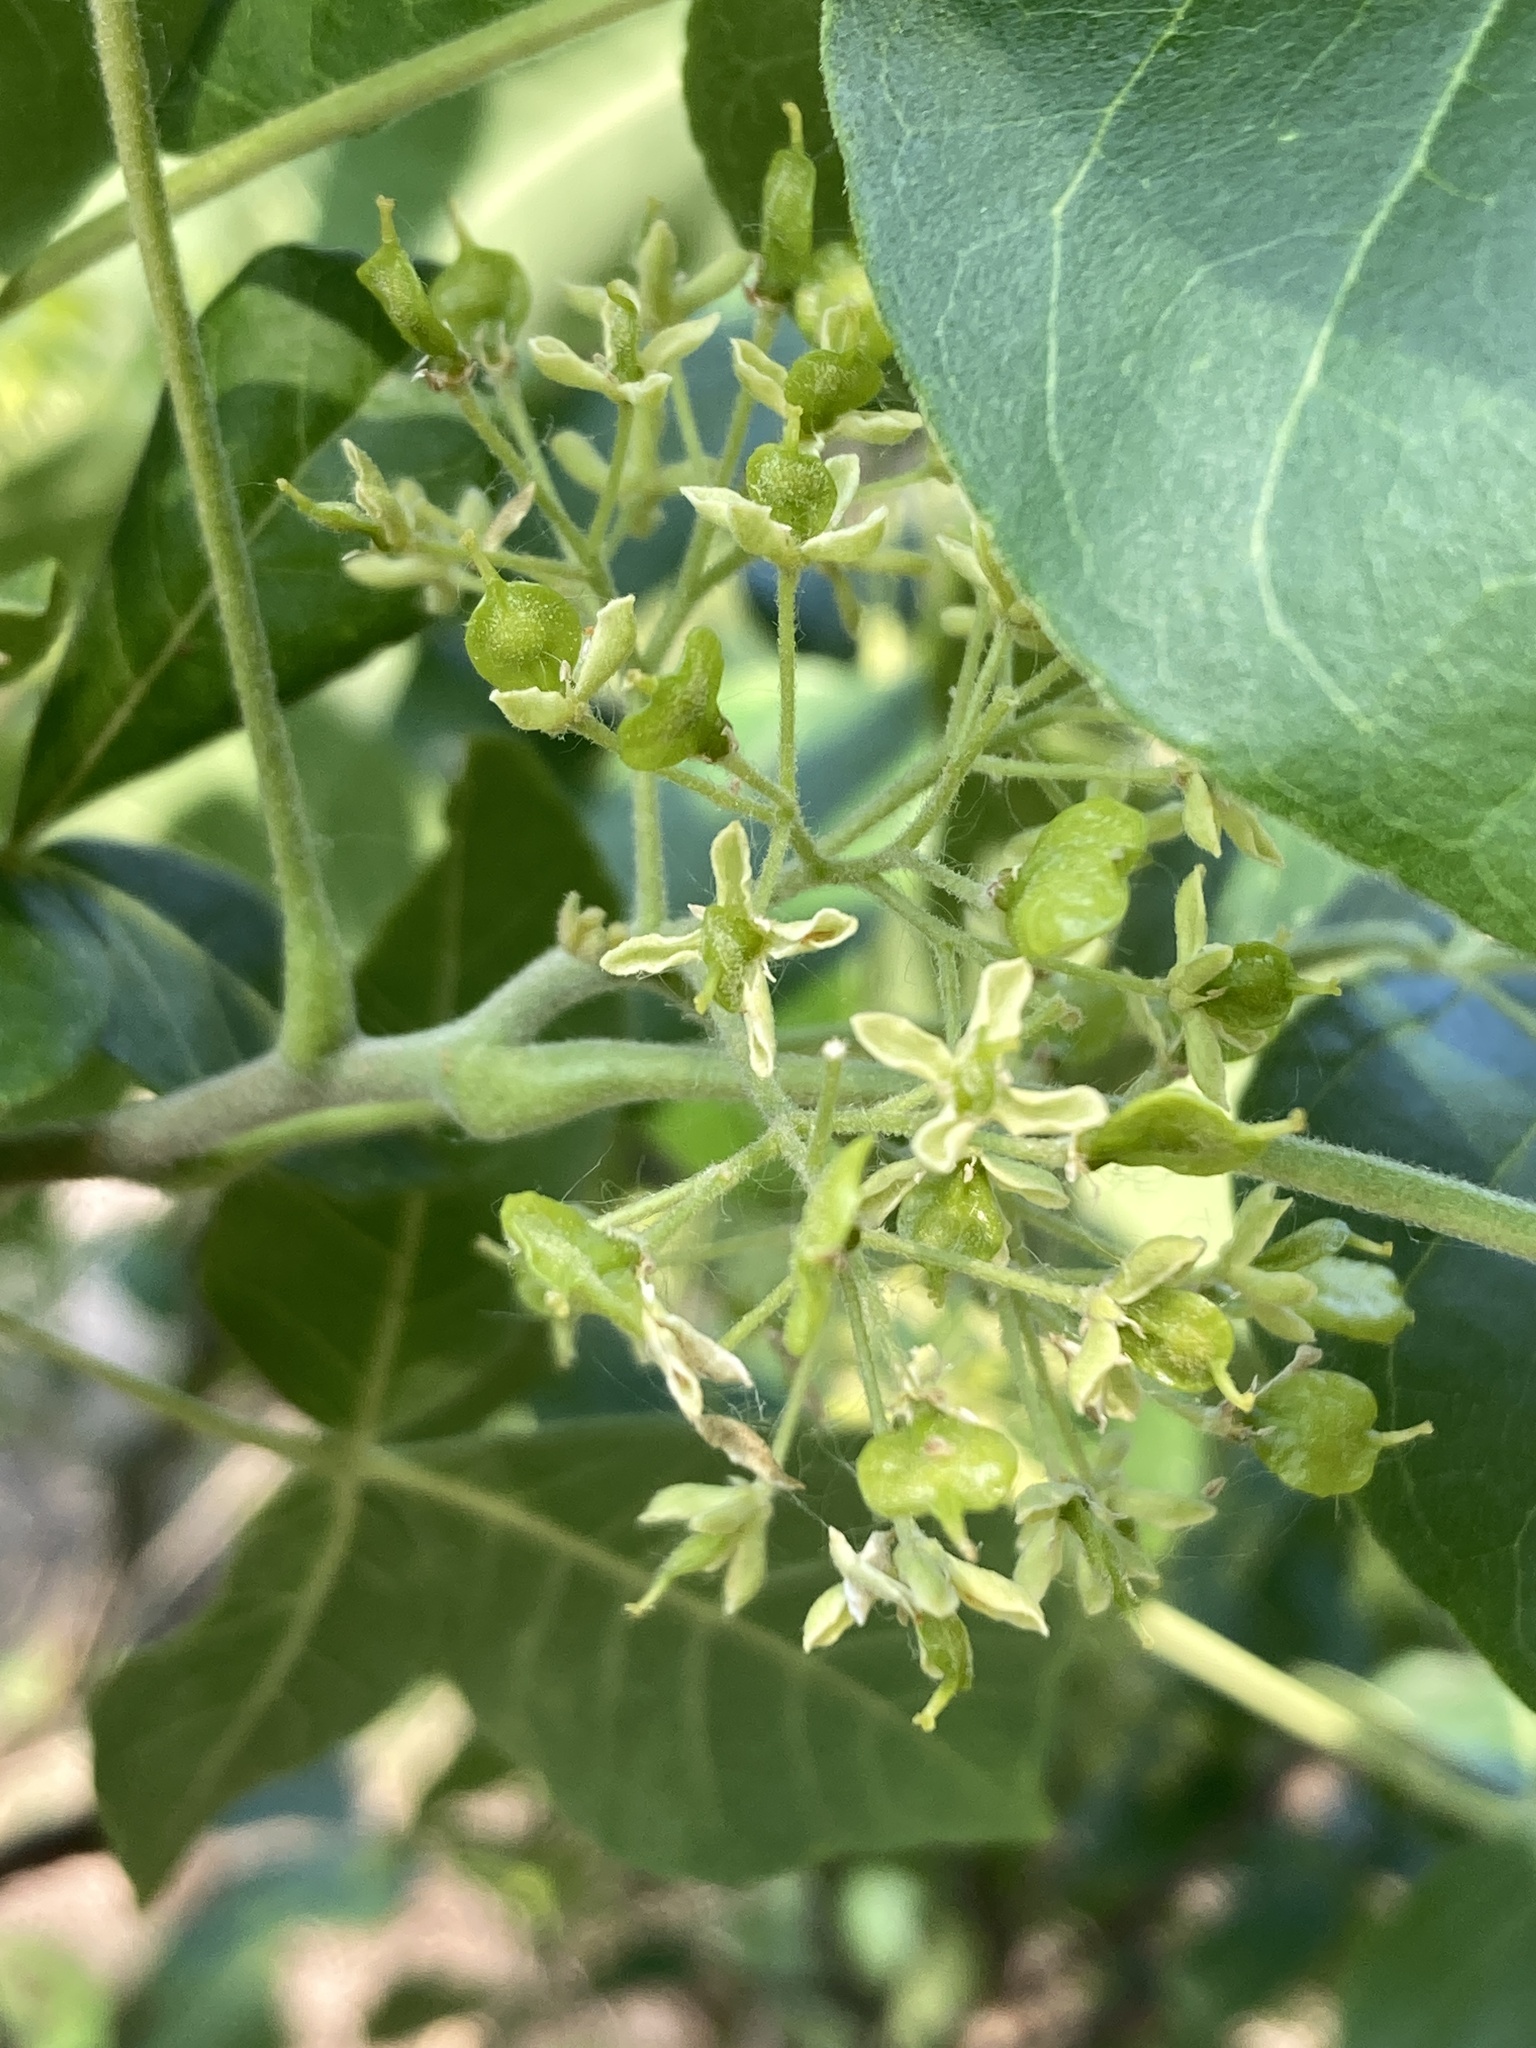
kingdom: Plantae
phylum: Tracheophyta
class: Magnoliopsida
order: Sapindales
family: Rutaceae
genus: Ptelea
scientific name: Ptelea trifoliata
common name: Common hop-tree
